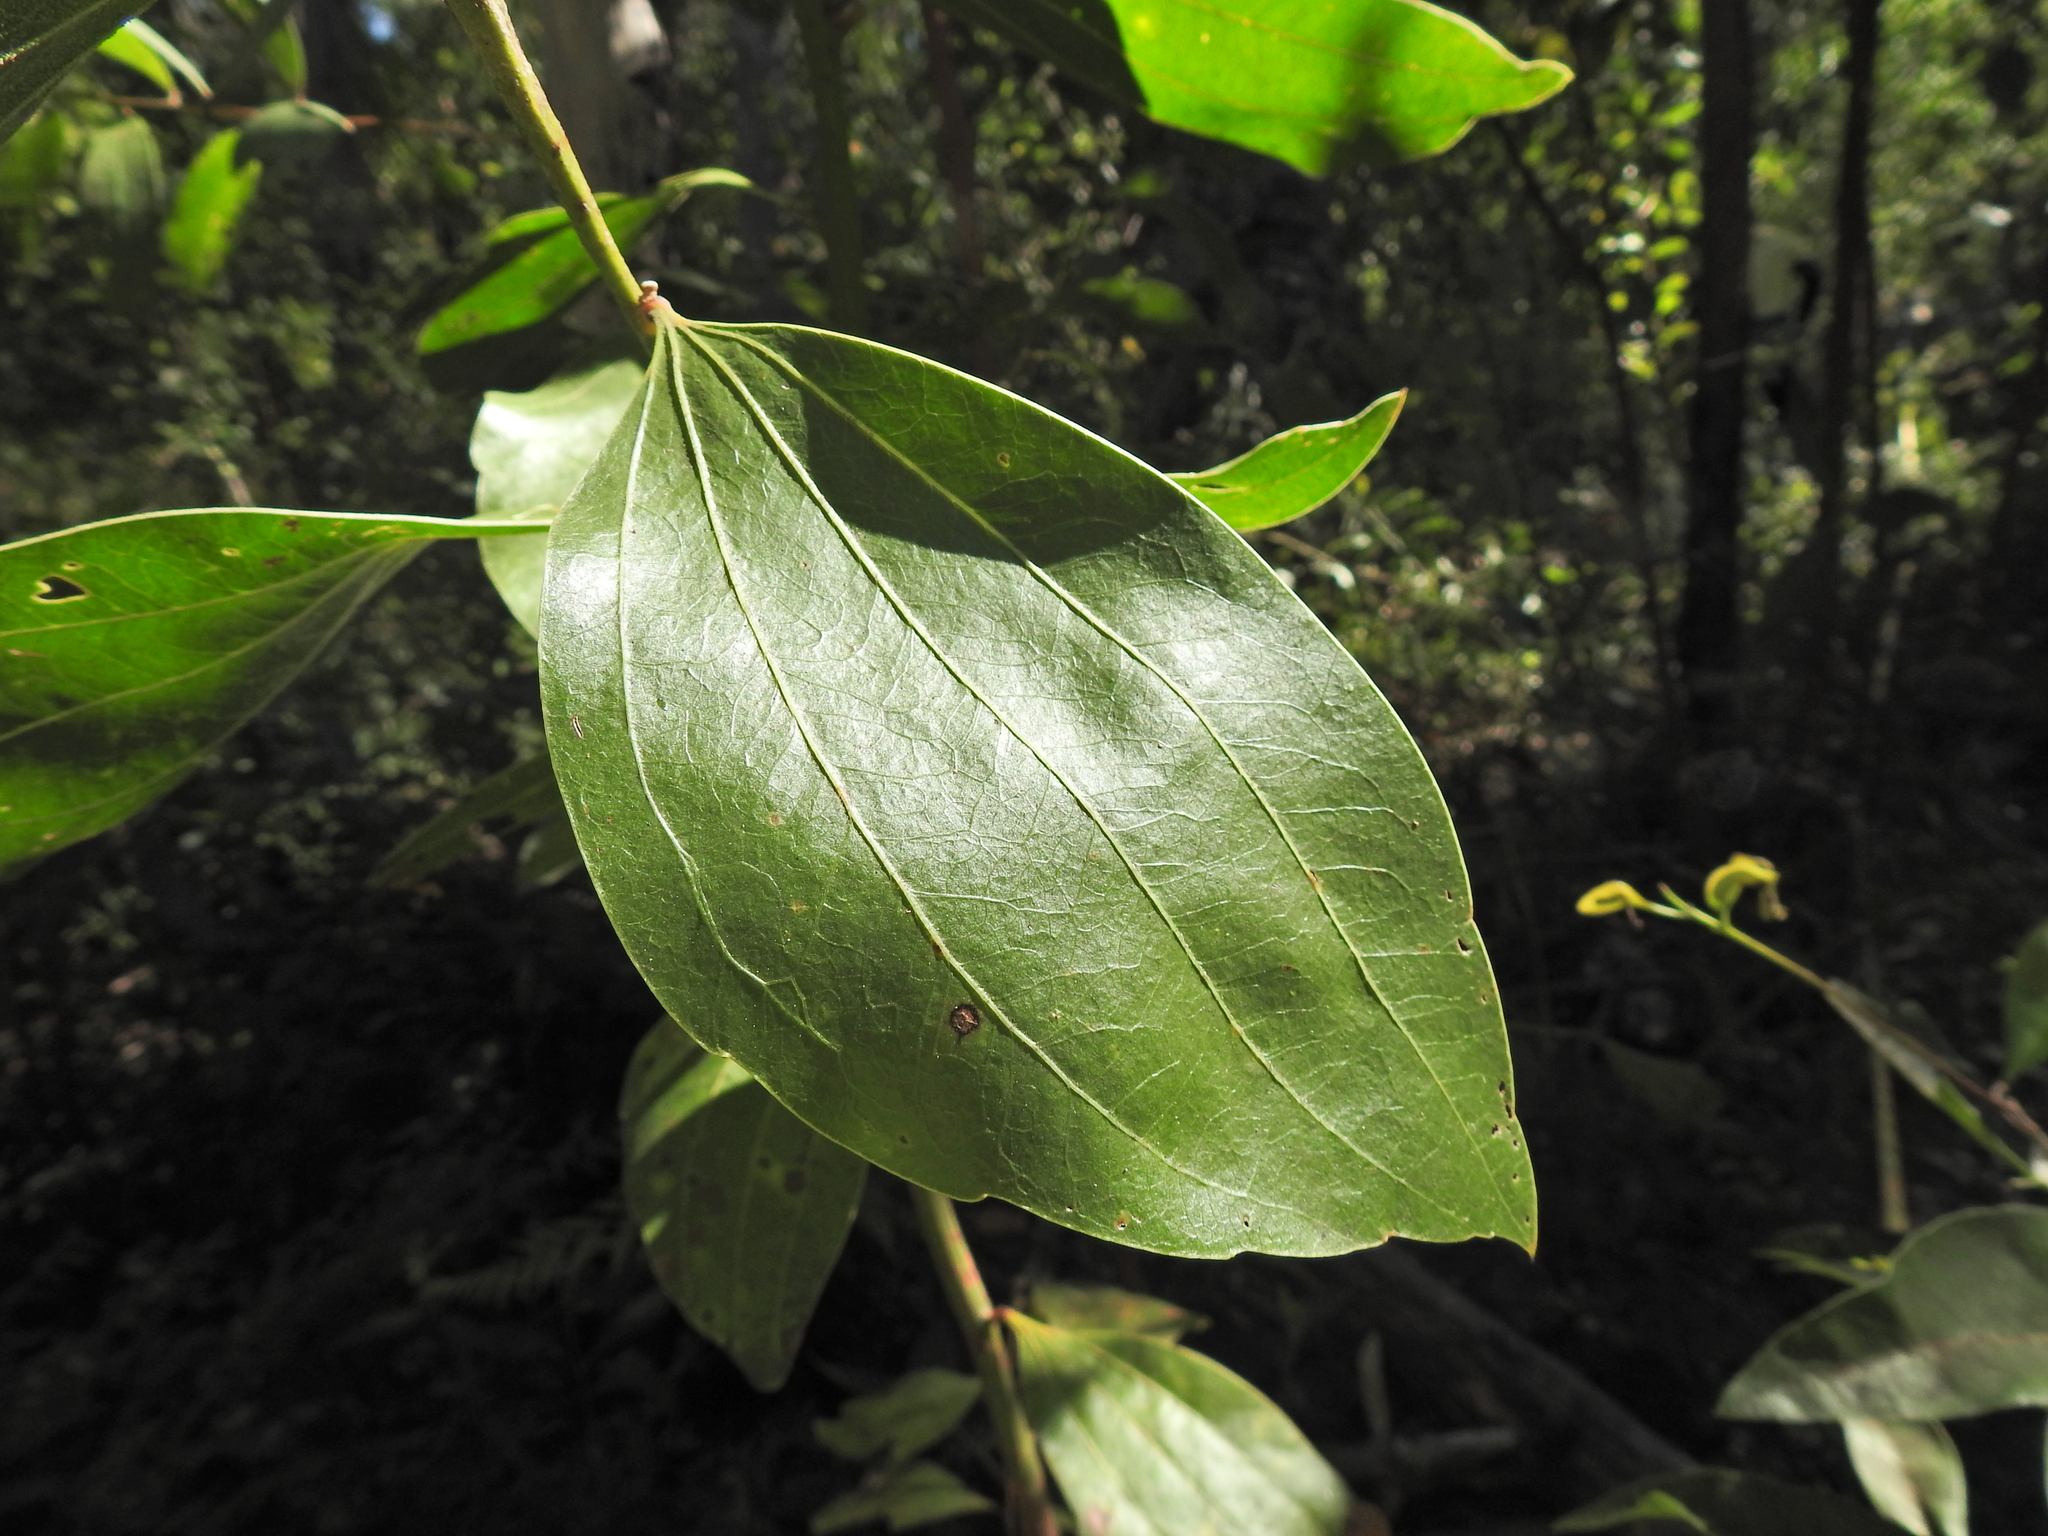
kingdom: Plantae
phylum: Tracheophyta
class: Magnoliopsida
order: Fabales
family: Fabaceae
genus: Acacia
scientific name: Acacia flavescens
